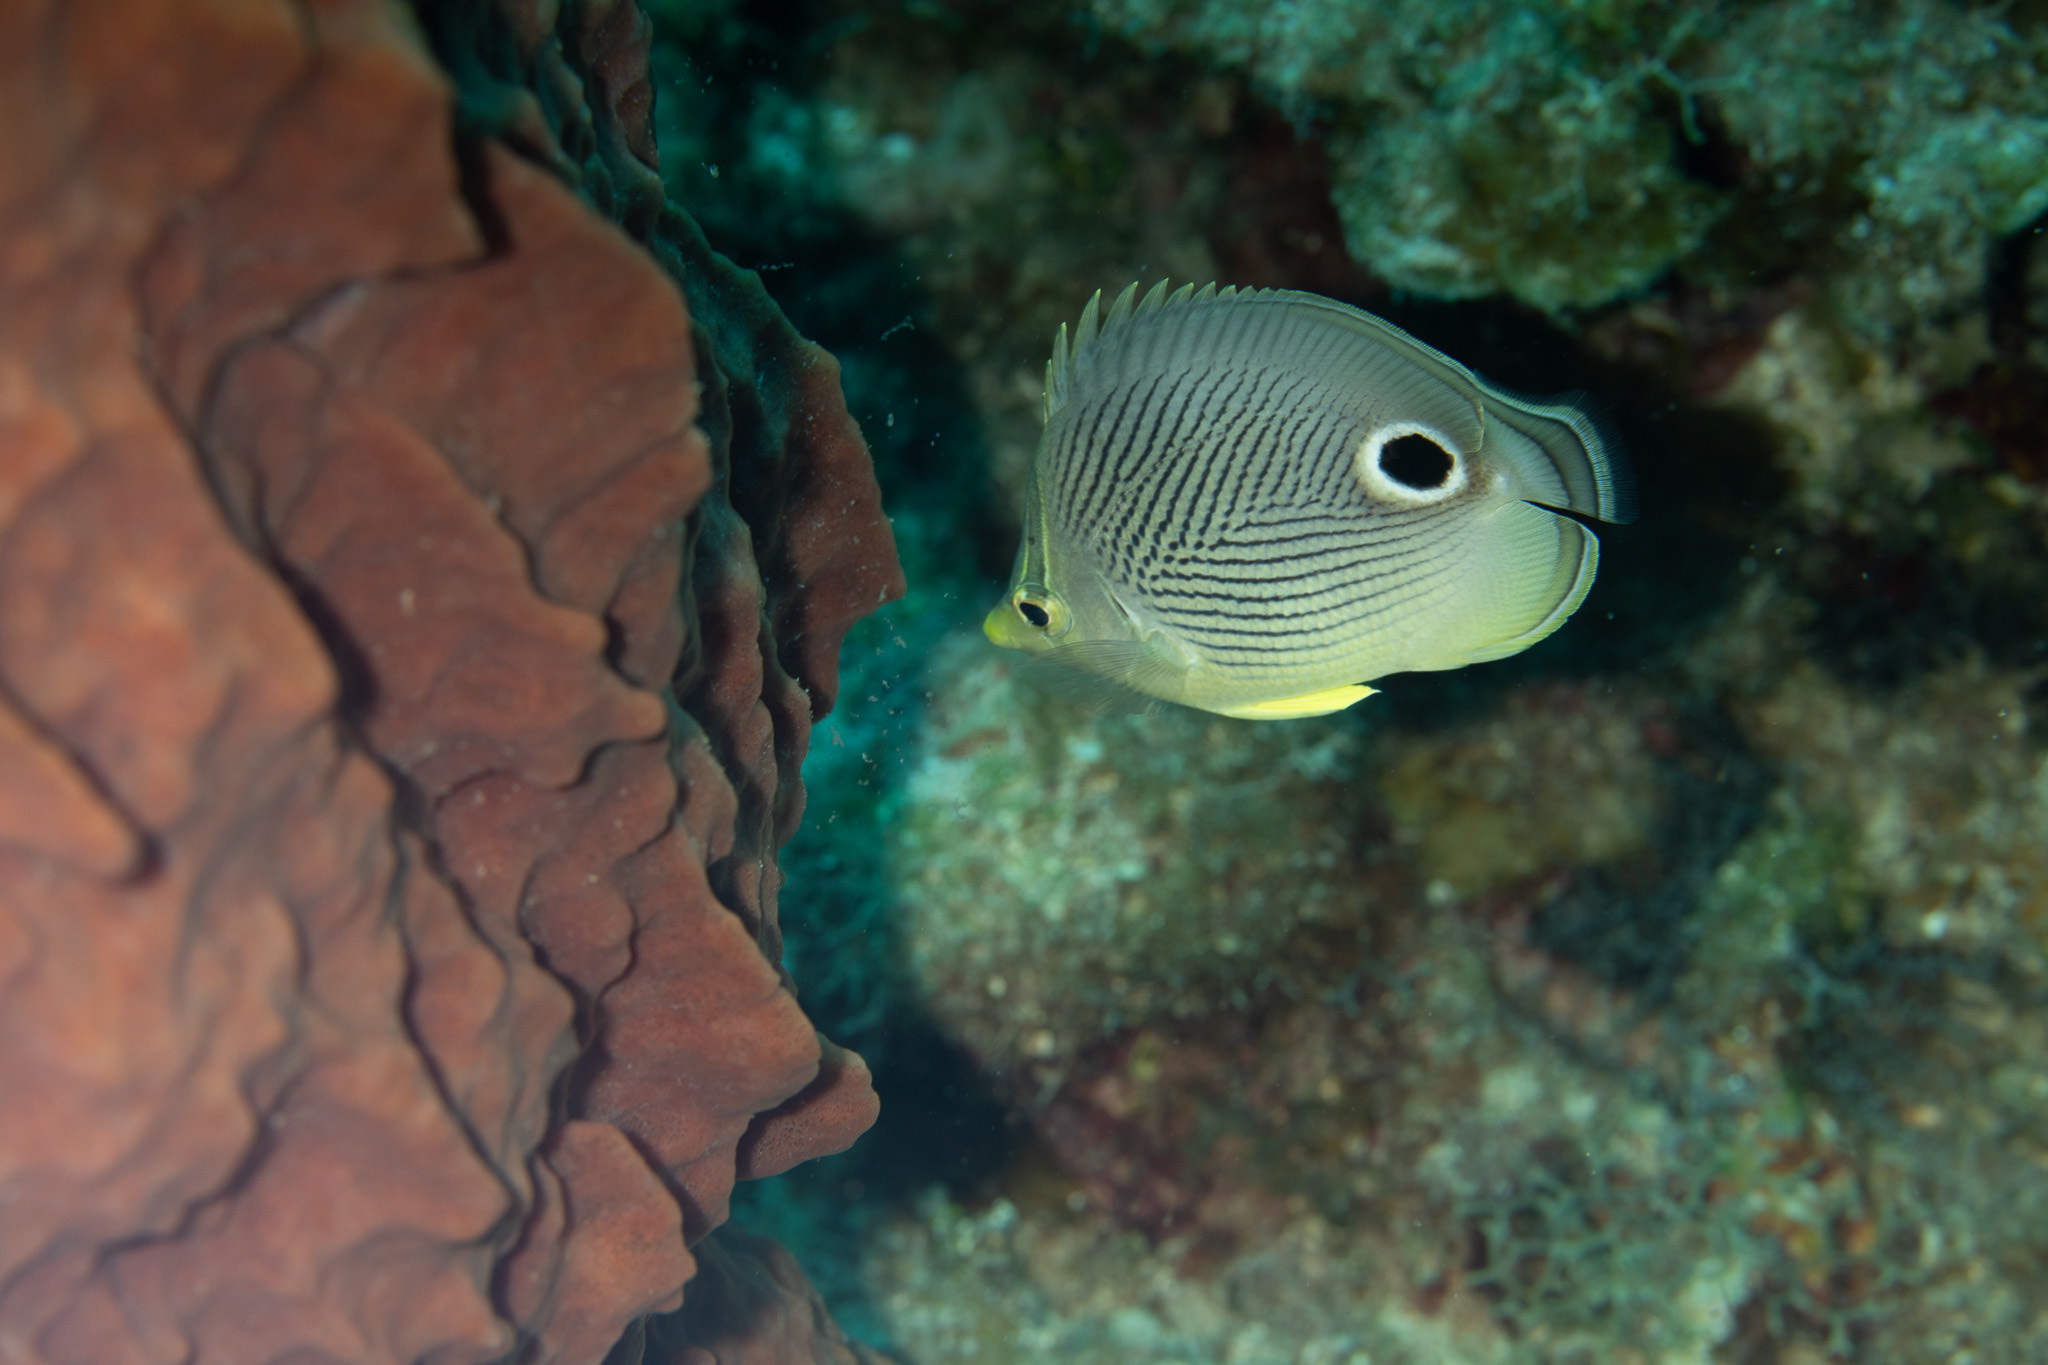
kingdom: Animalia
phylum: Chordata
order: Perciformes
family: Chaetodontidae
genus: Chaetodon
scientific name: Chaetodon capistratus
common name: Kete
